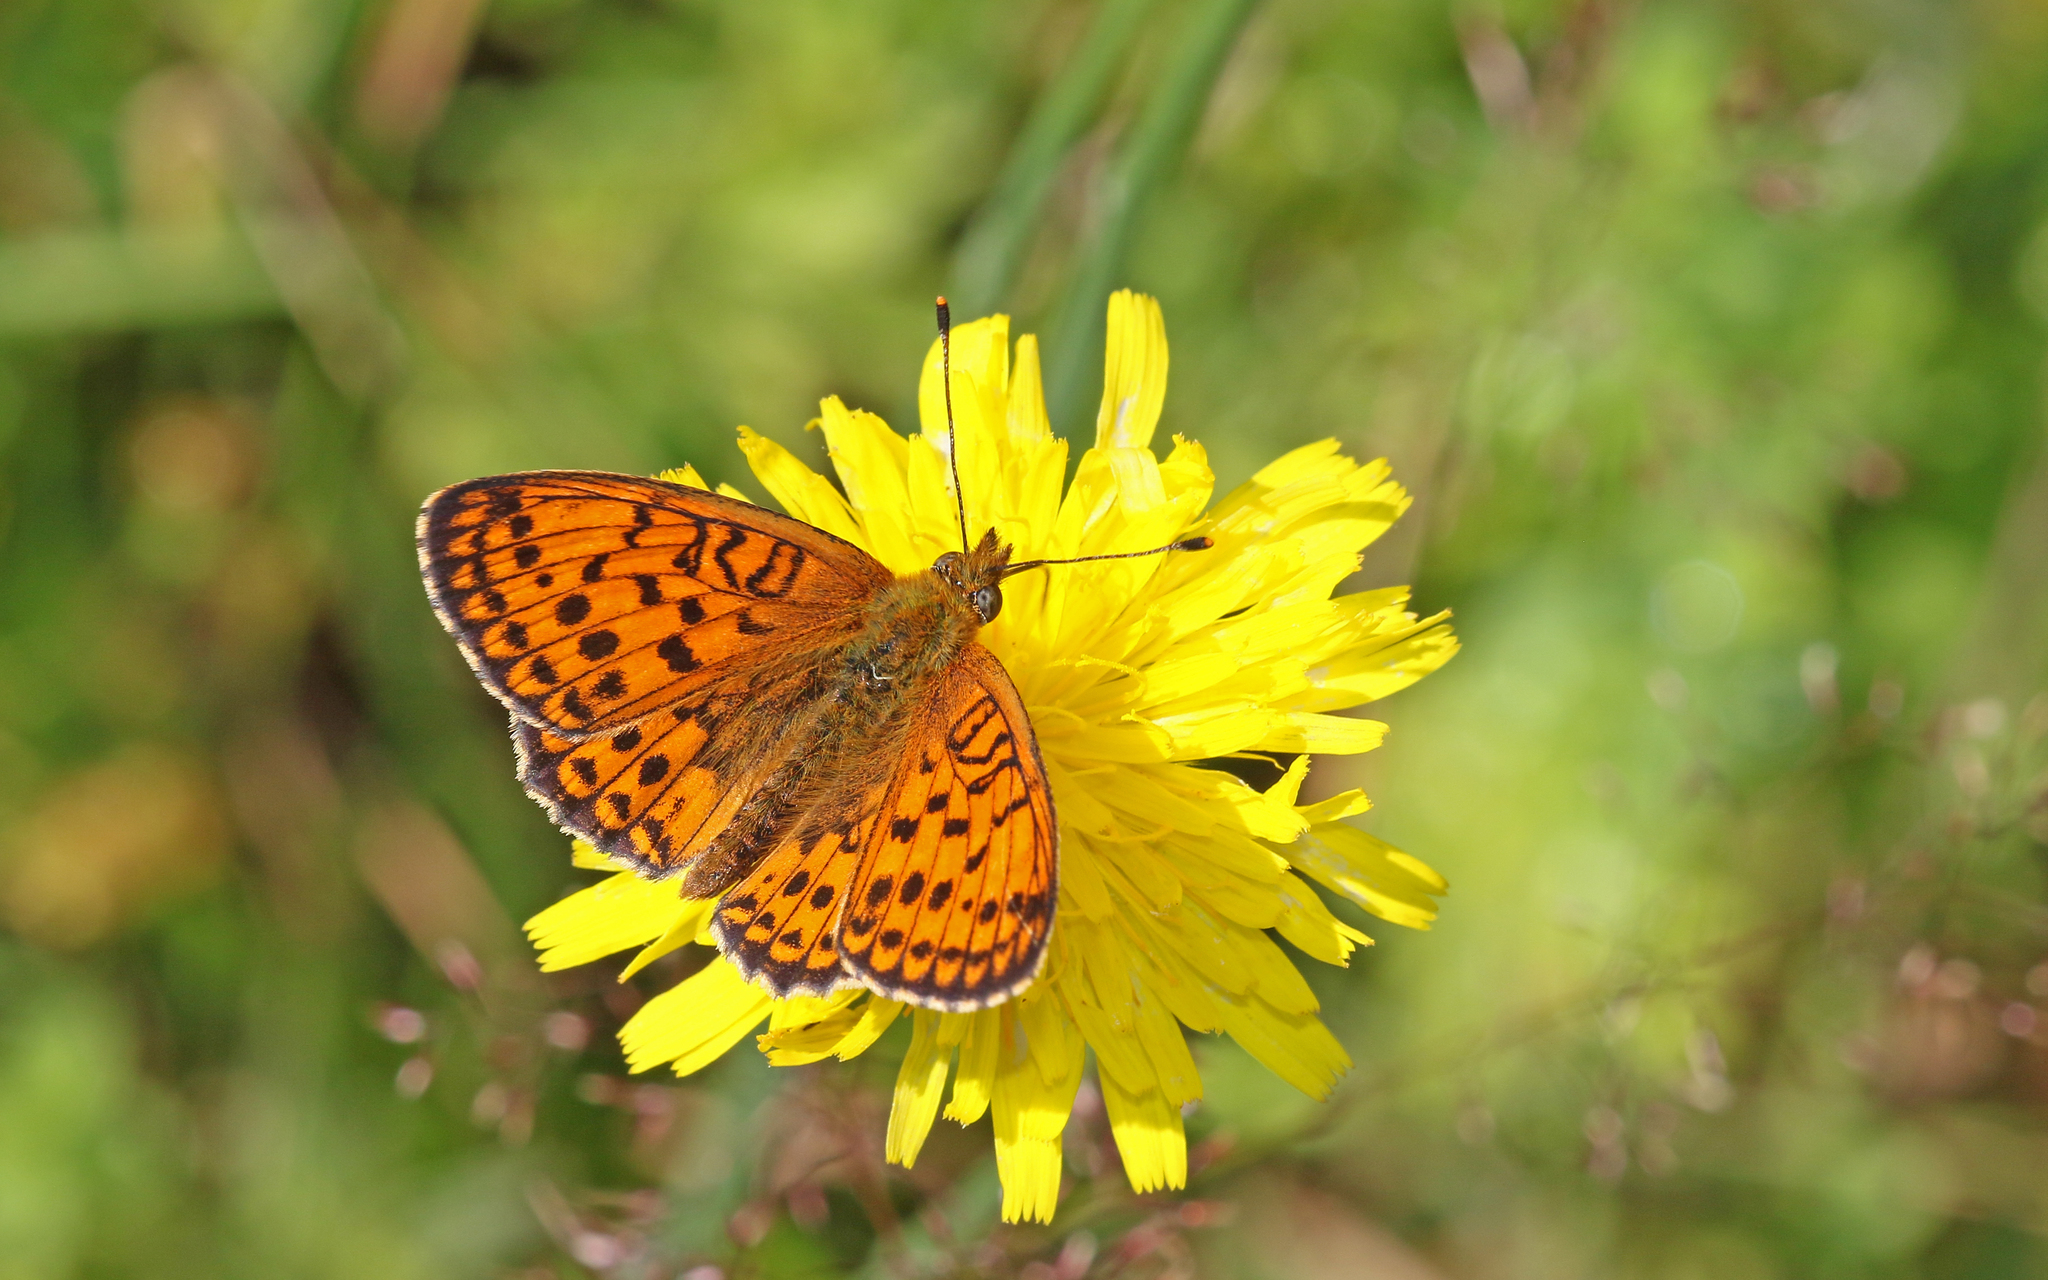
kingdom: Animalia
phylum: Arthropoda
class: Insecta
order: Lepidoptera
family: Nymphalidae
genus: Brenthis
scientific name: Brenthis ino
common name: Lesser marbled fritillary
